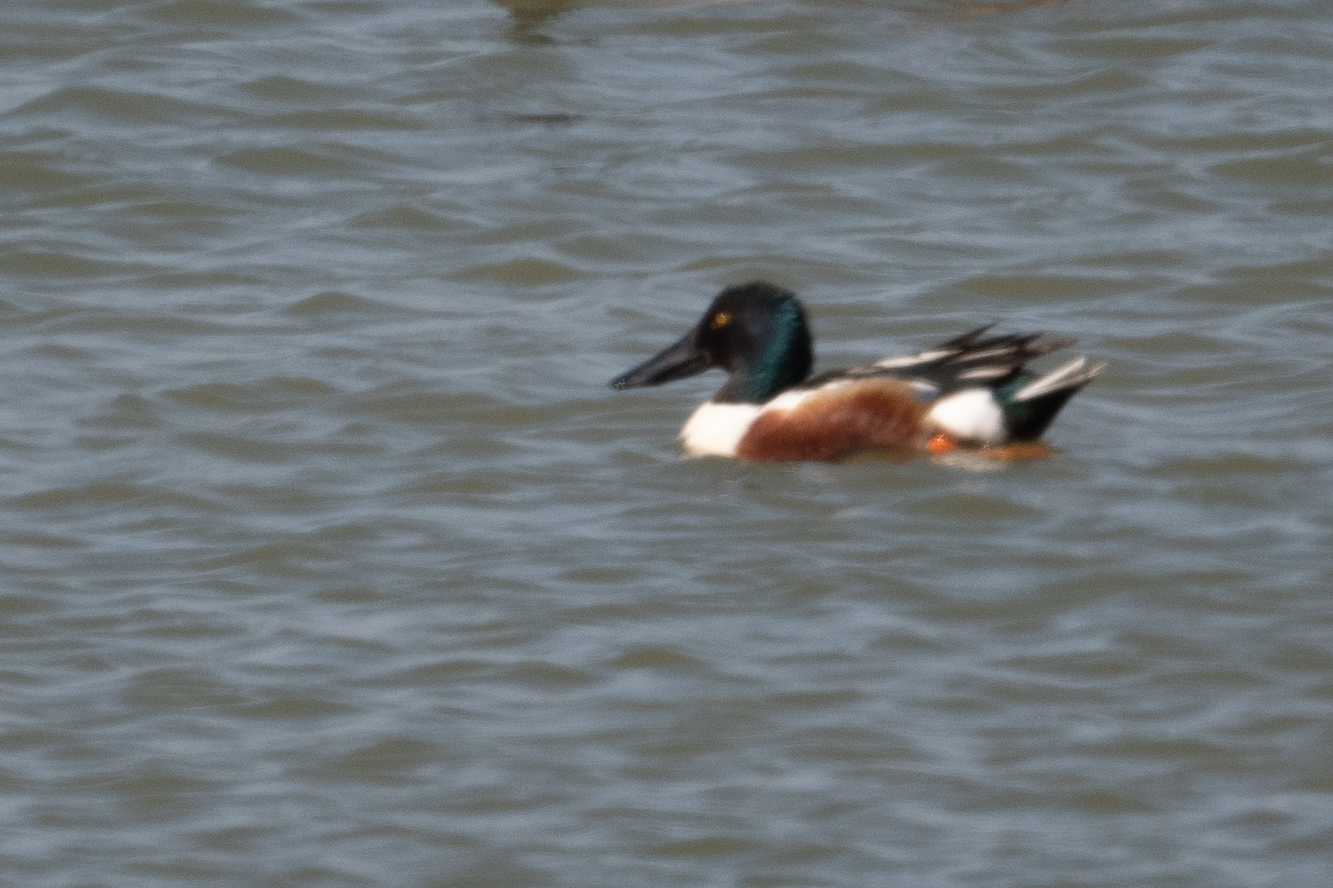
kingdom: Animalia
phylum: Chordata
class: Aves
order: Anseriformes
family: Anatidae
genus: Spatula
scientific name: Spatula clypeata
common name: Northern shoveler
